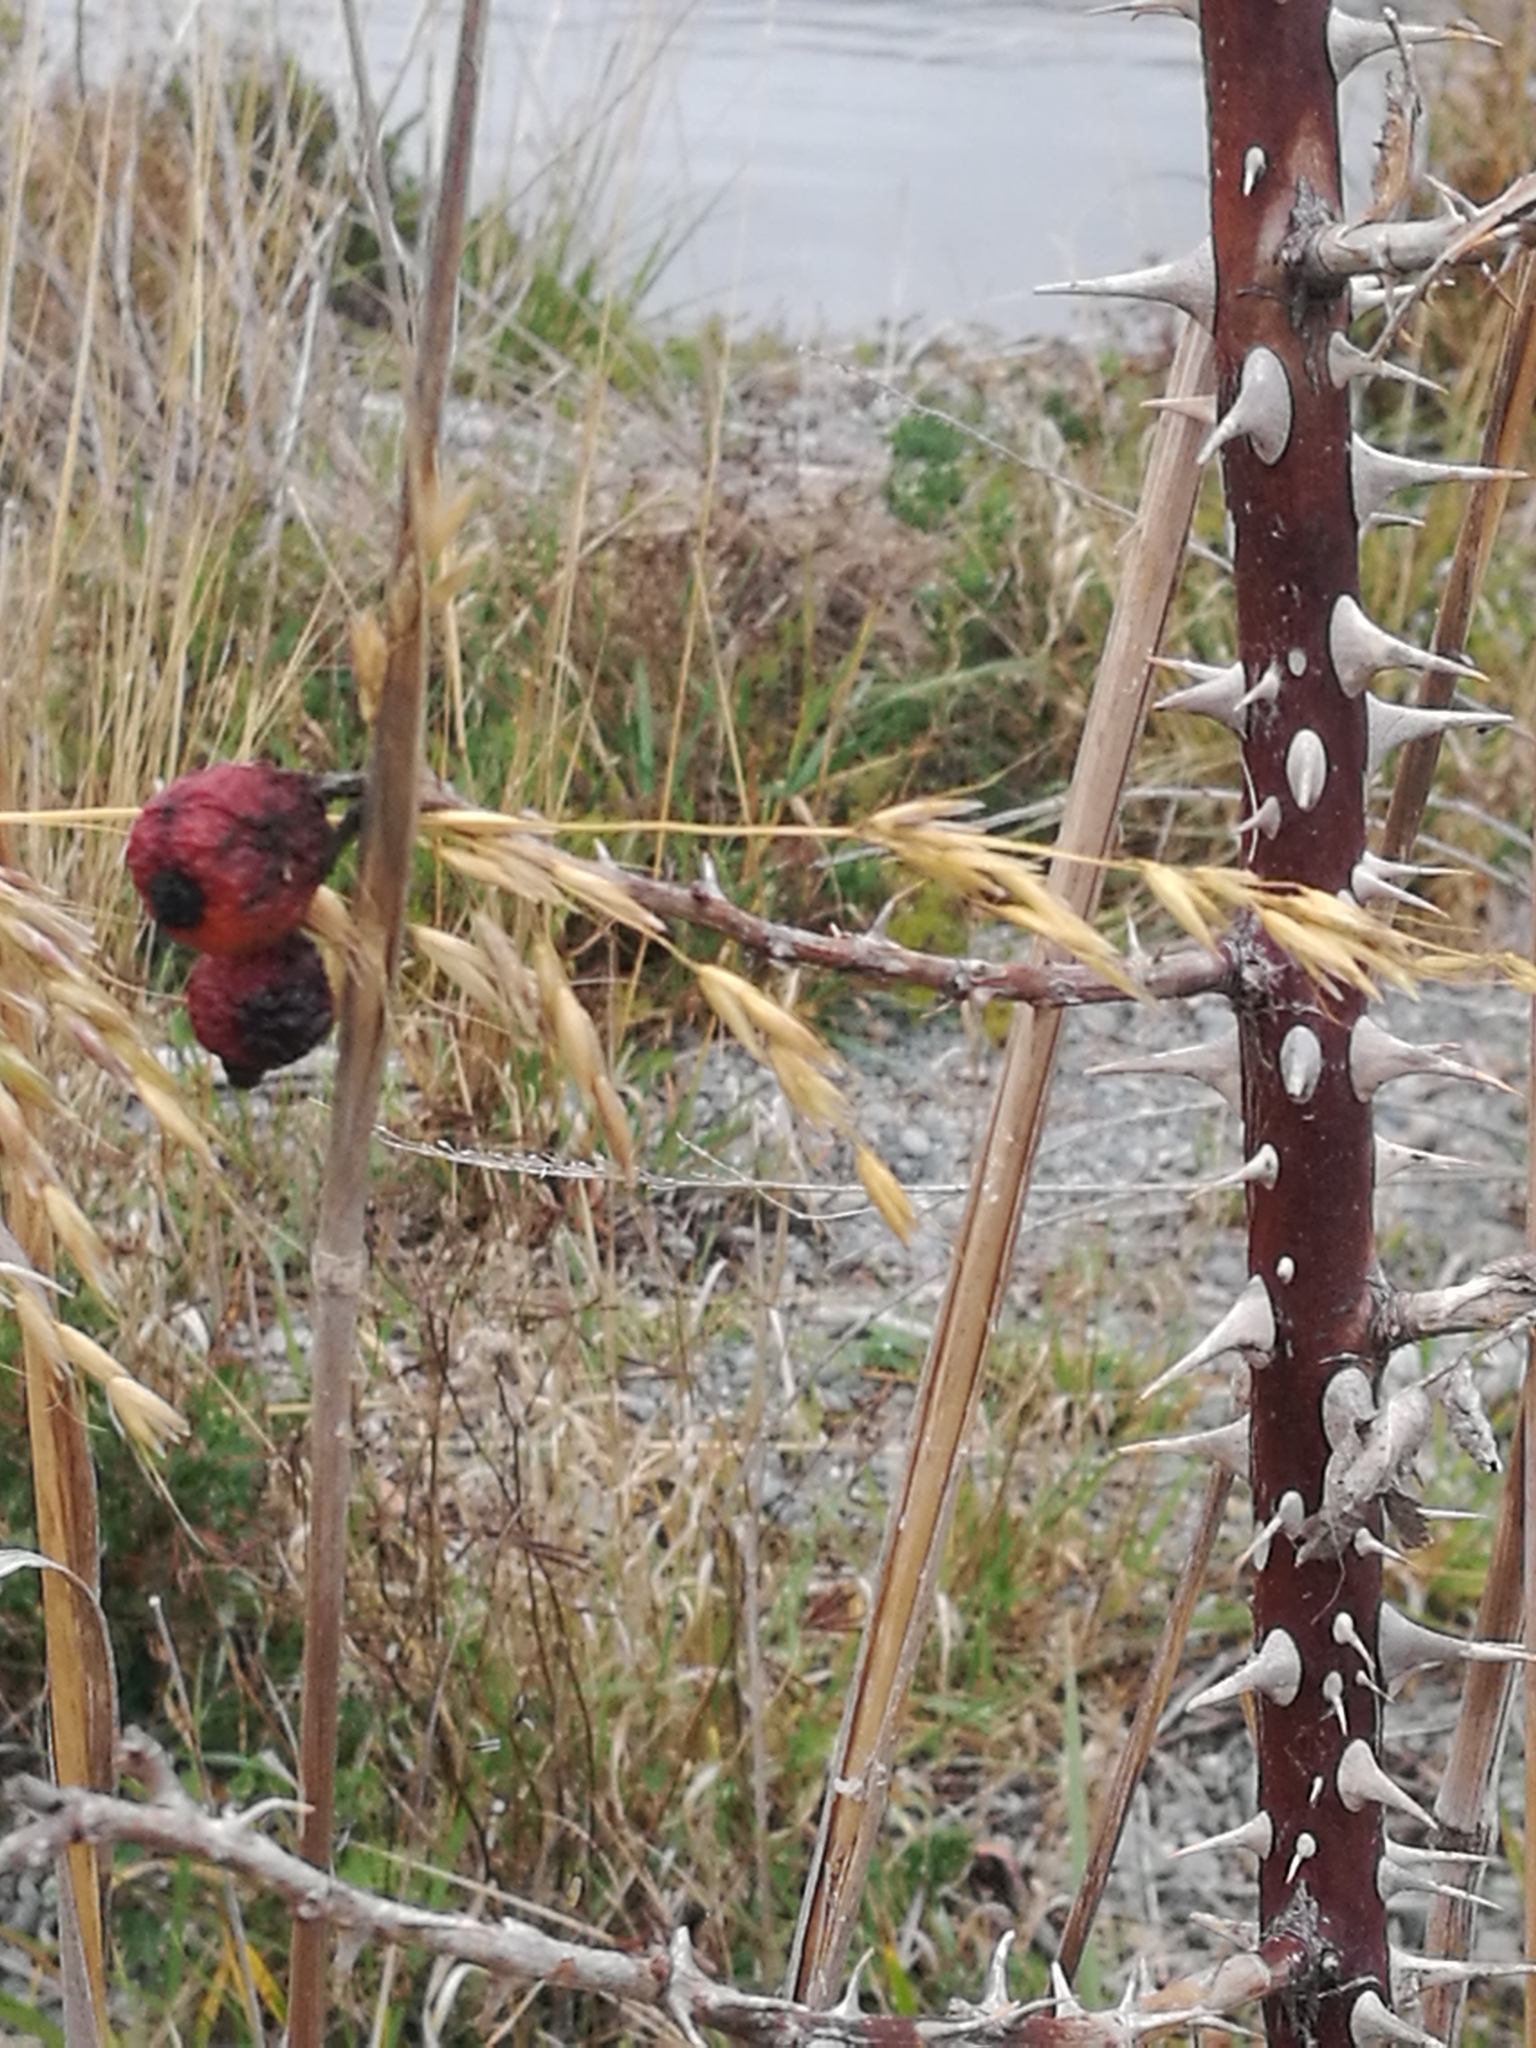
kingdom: Plantae
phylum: Tracheophyta
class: Magnoliopsida
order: Rosales
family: Rosaceae
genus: Rosa
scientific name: Rosa rubiginosa
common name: Sweet-briar
